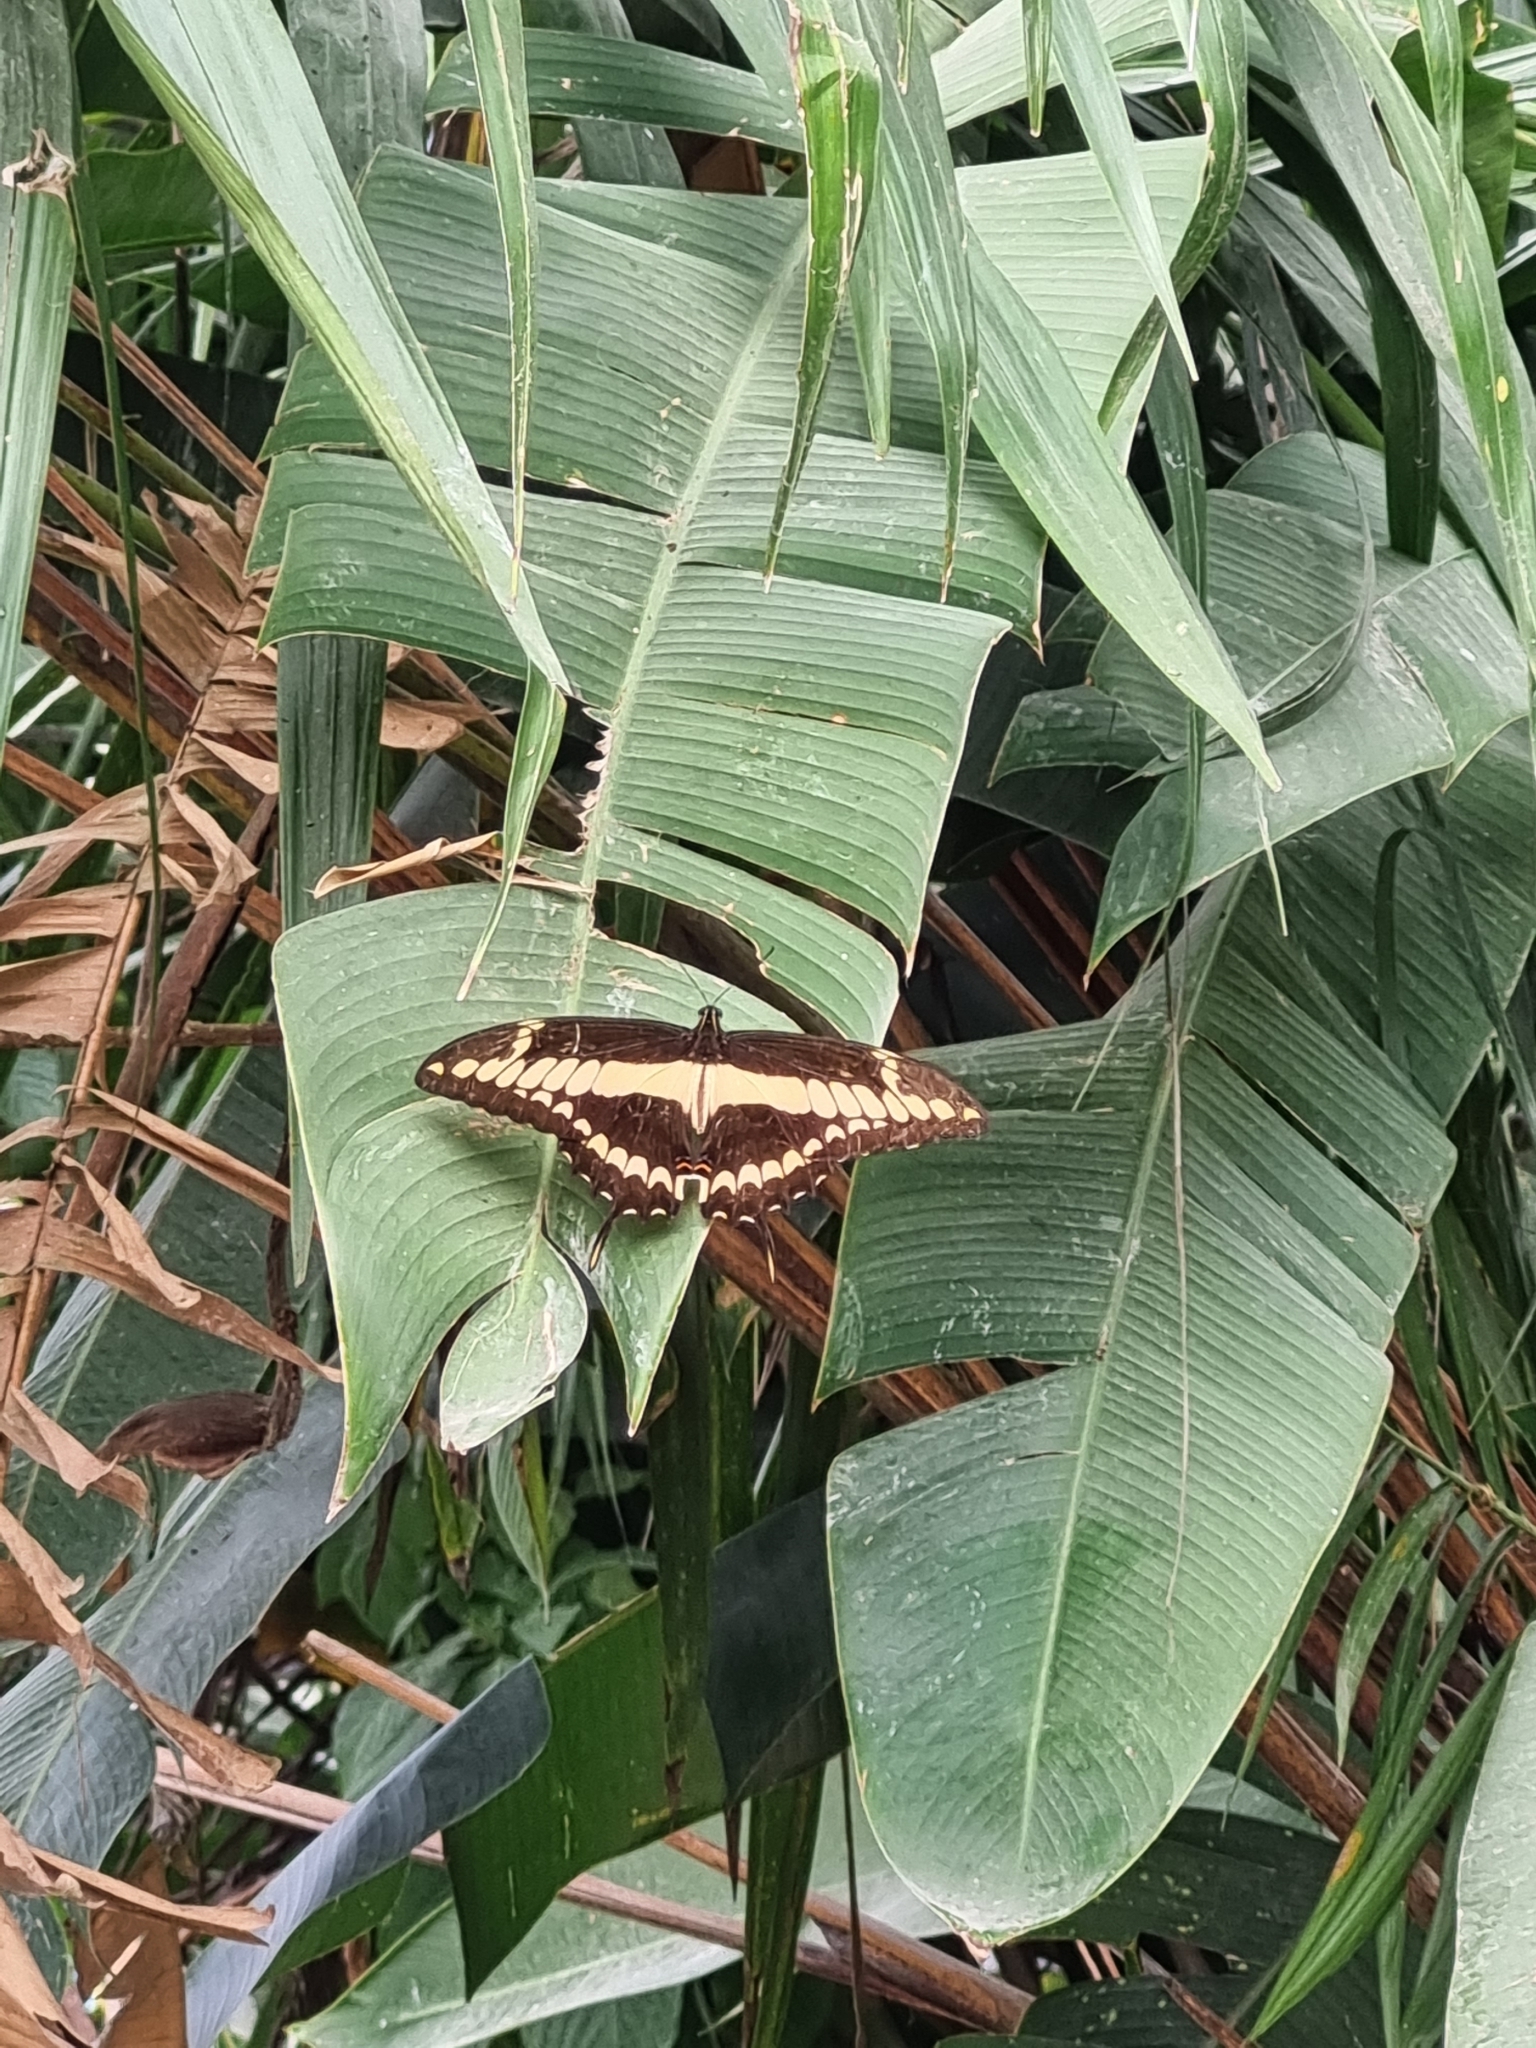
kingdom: Animalia
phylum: Arthropoda
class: Insecta
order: Lepidoptera
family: Papilionidae
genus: Papilio
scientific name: Papilio thoas
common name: King swallowtail
